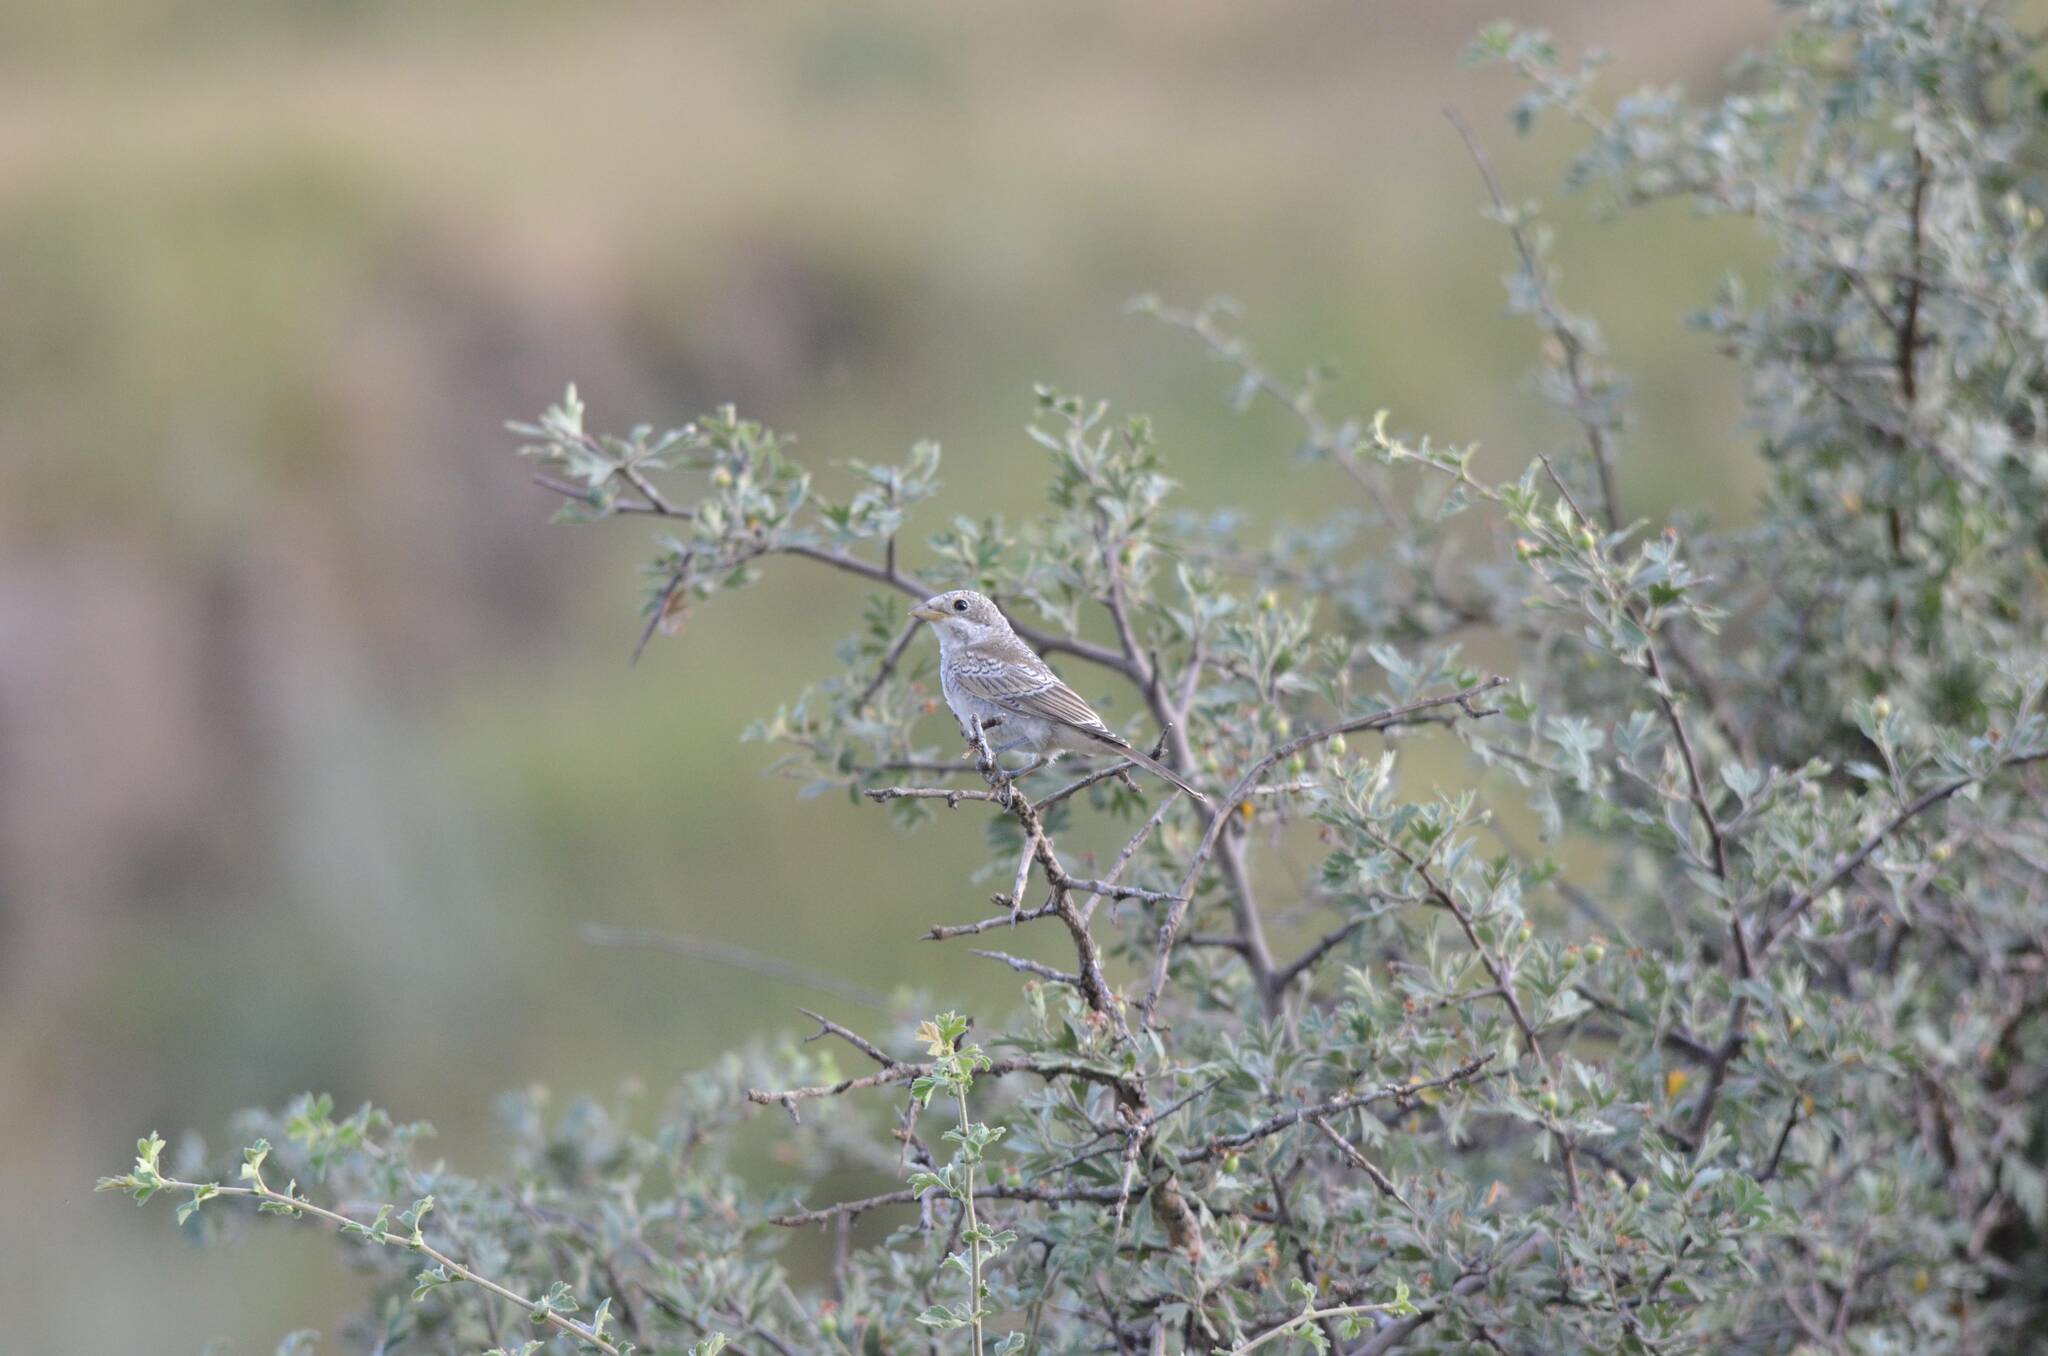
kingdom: Animalia
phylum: Chordata
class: Aves
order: Passeriformes
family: Laniidae
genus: Lanius
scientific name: Lanius senator
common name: Woodchat shrike
